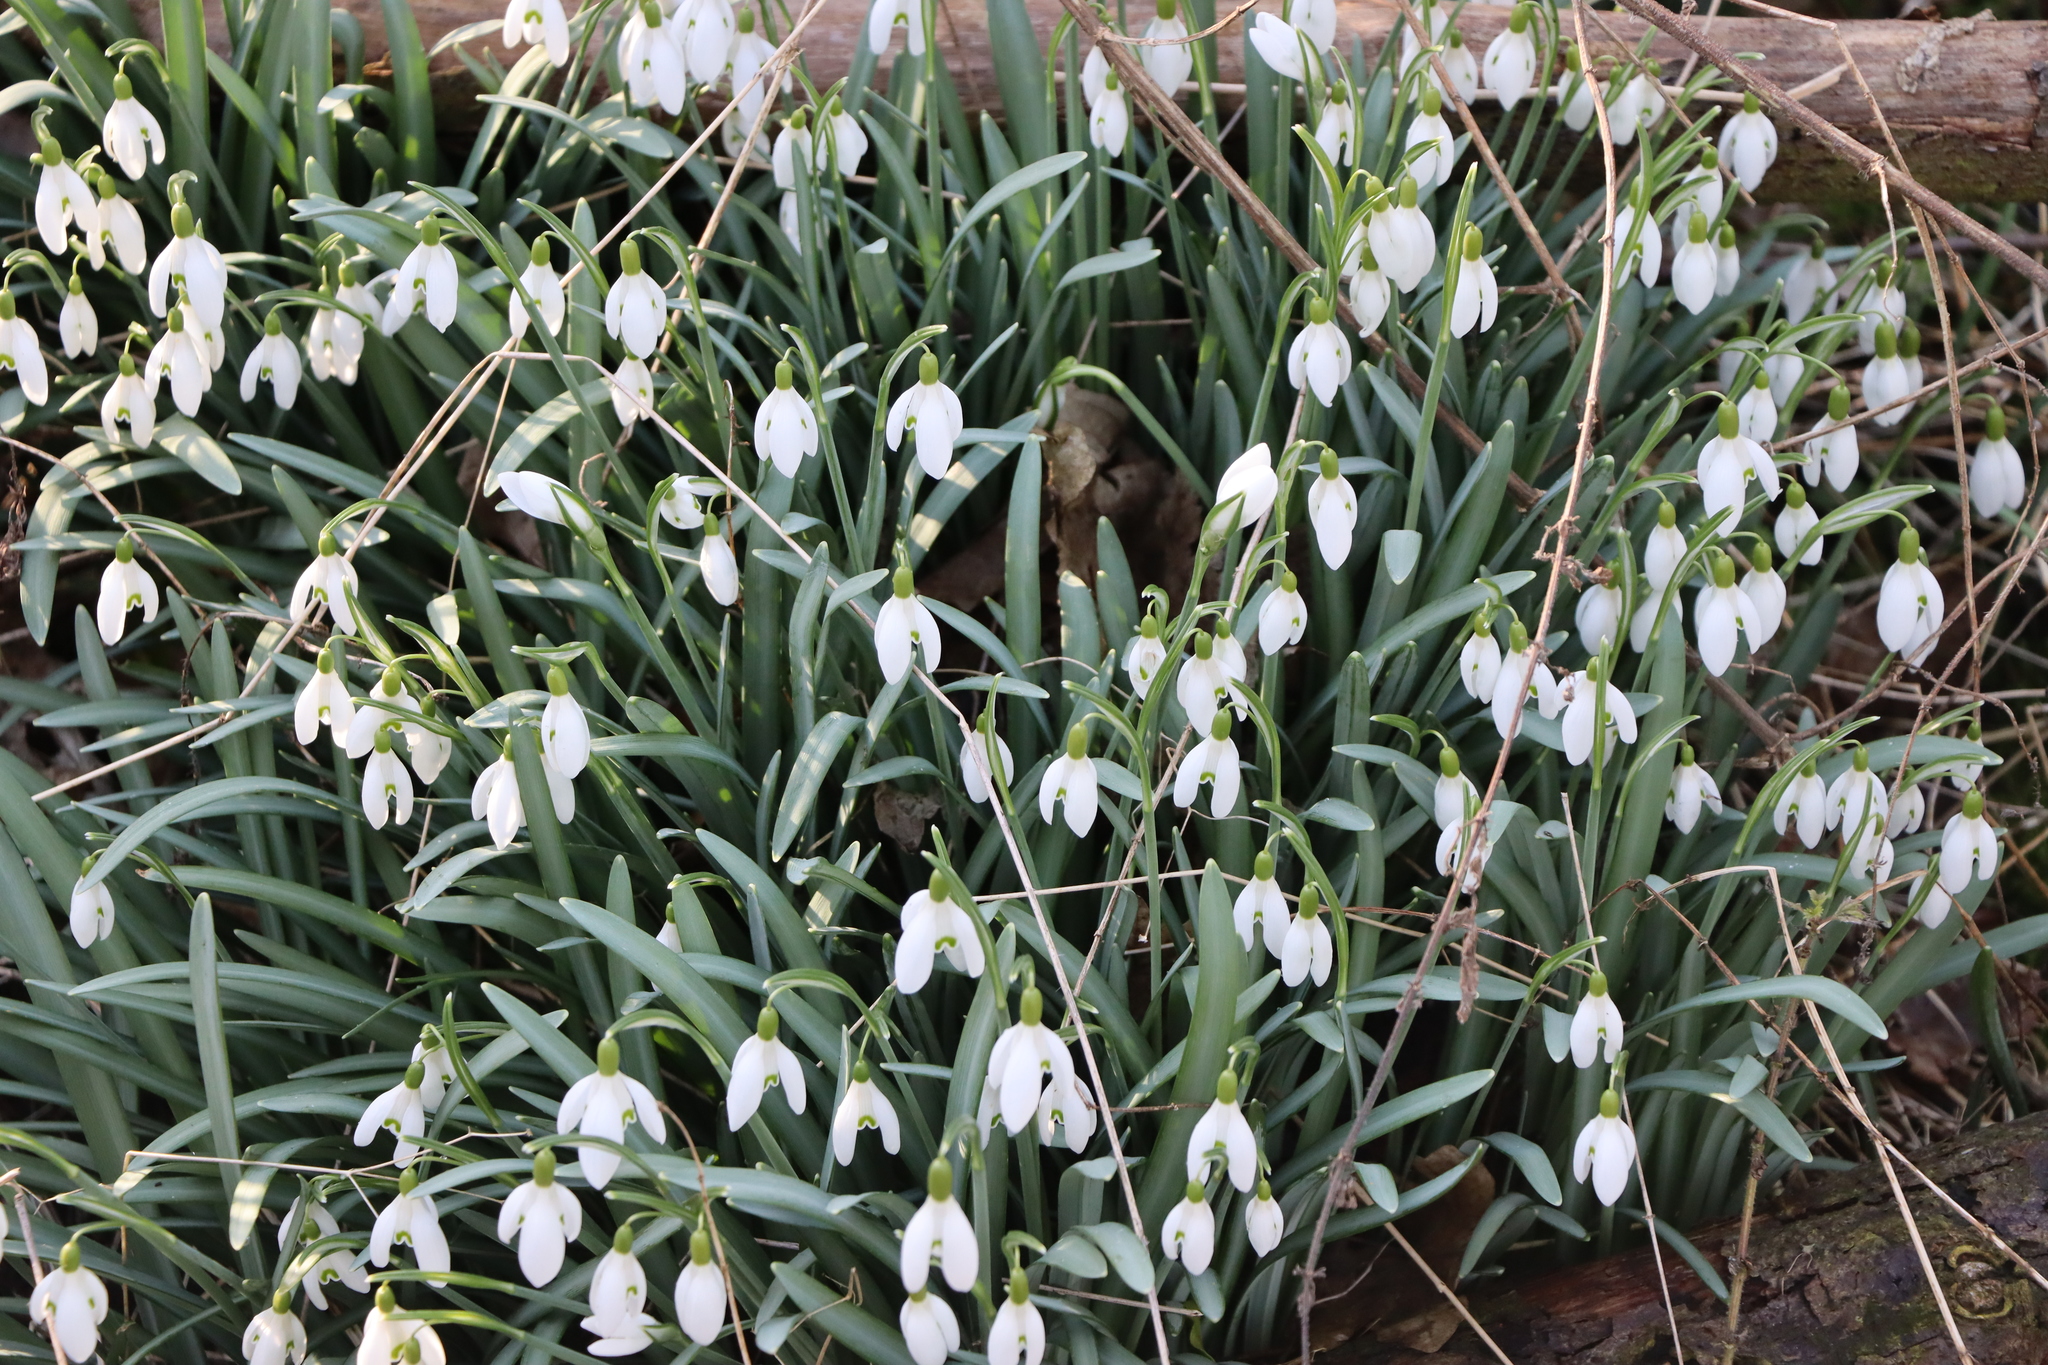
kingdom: Plantae
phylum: Tracheophyta
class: Liliopsida
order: Asparagales
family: Amaryllidaceae
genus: Galanthus
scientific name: Galanthus nivalis
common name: Snowdrop
